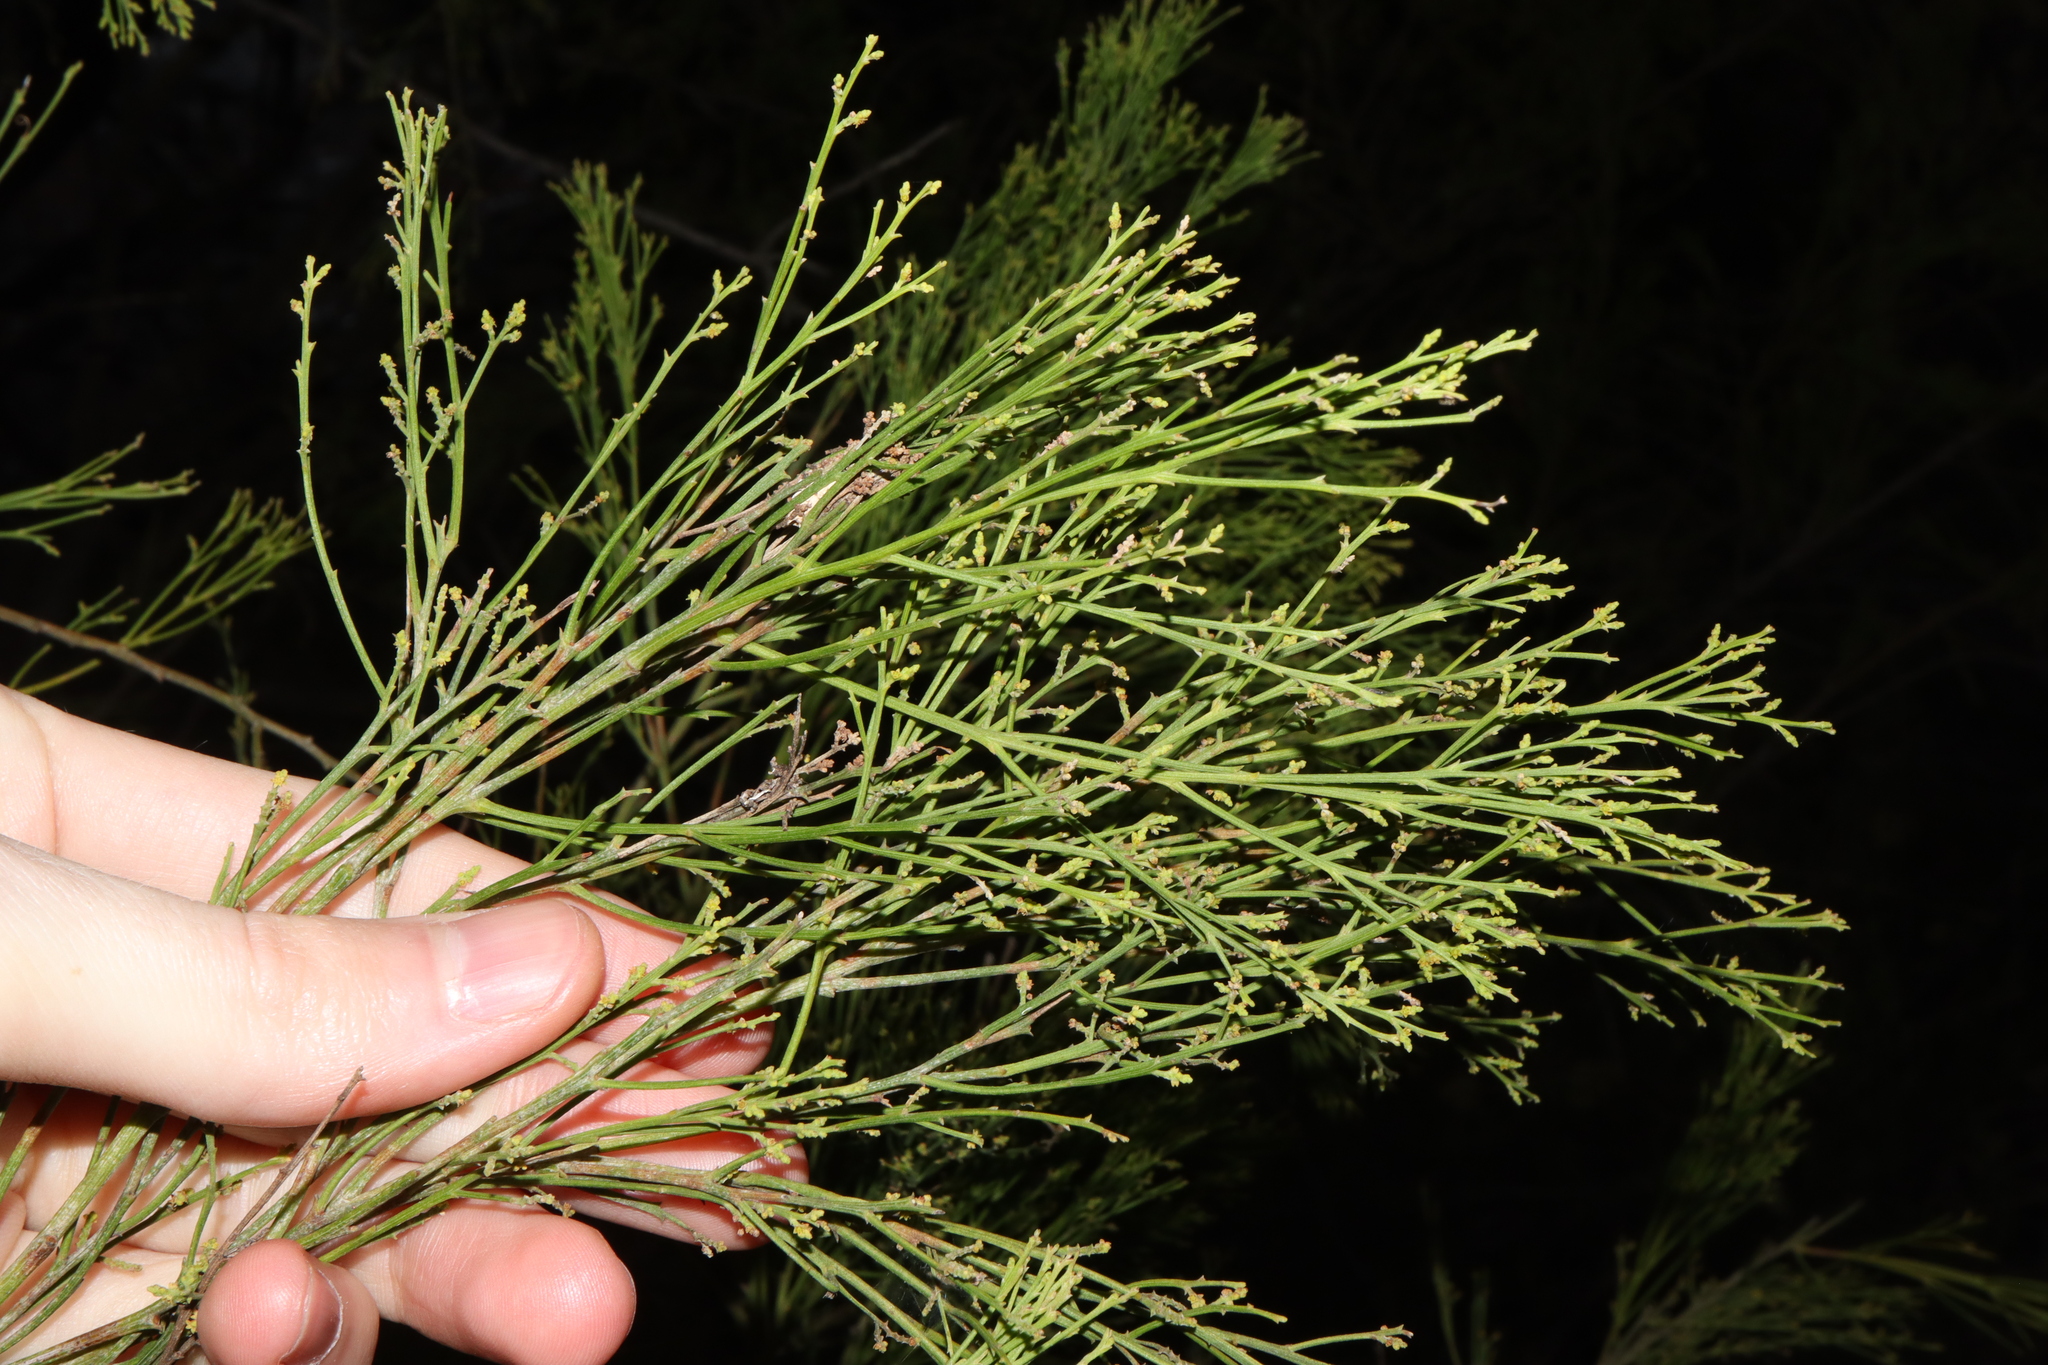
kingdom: Plantae
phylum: Tracheophyta
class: Magnoliopsida
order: Santalales
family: Santalaceae
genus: Exocarpos
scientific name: Exocarpos cupressiformis
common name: Cherry ballart
